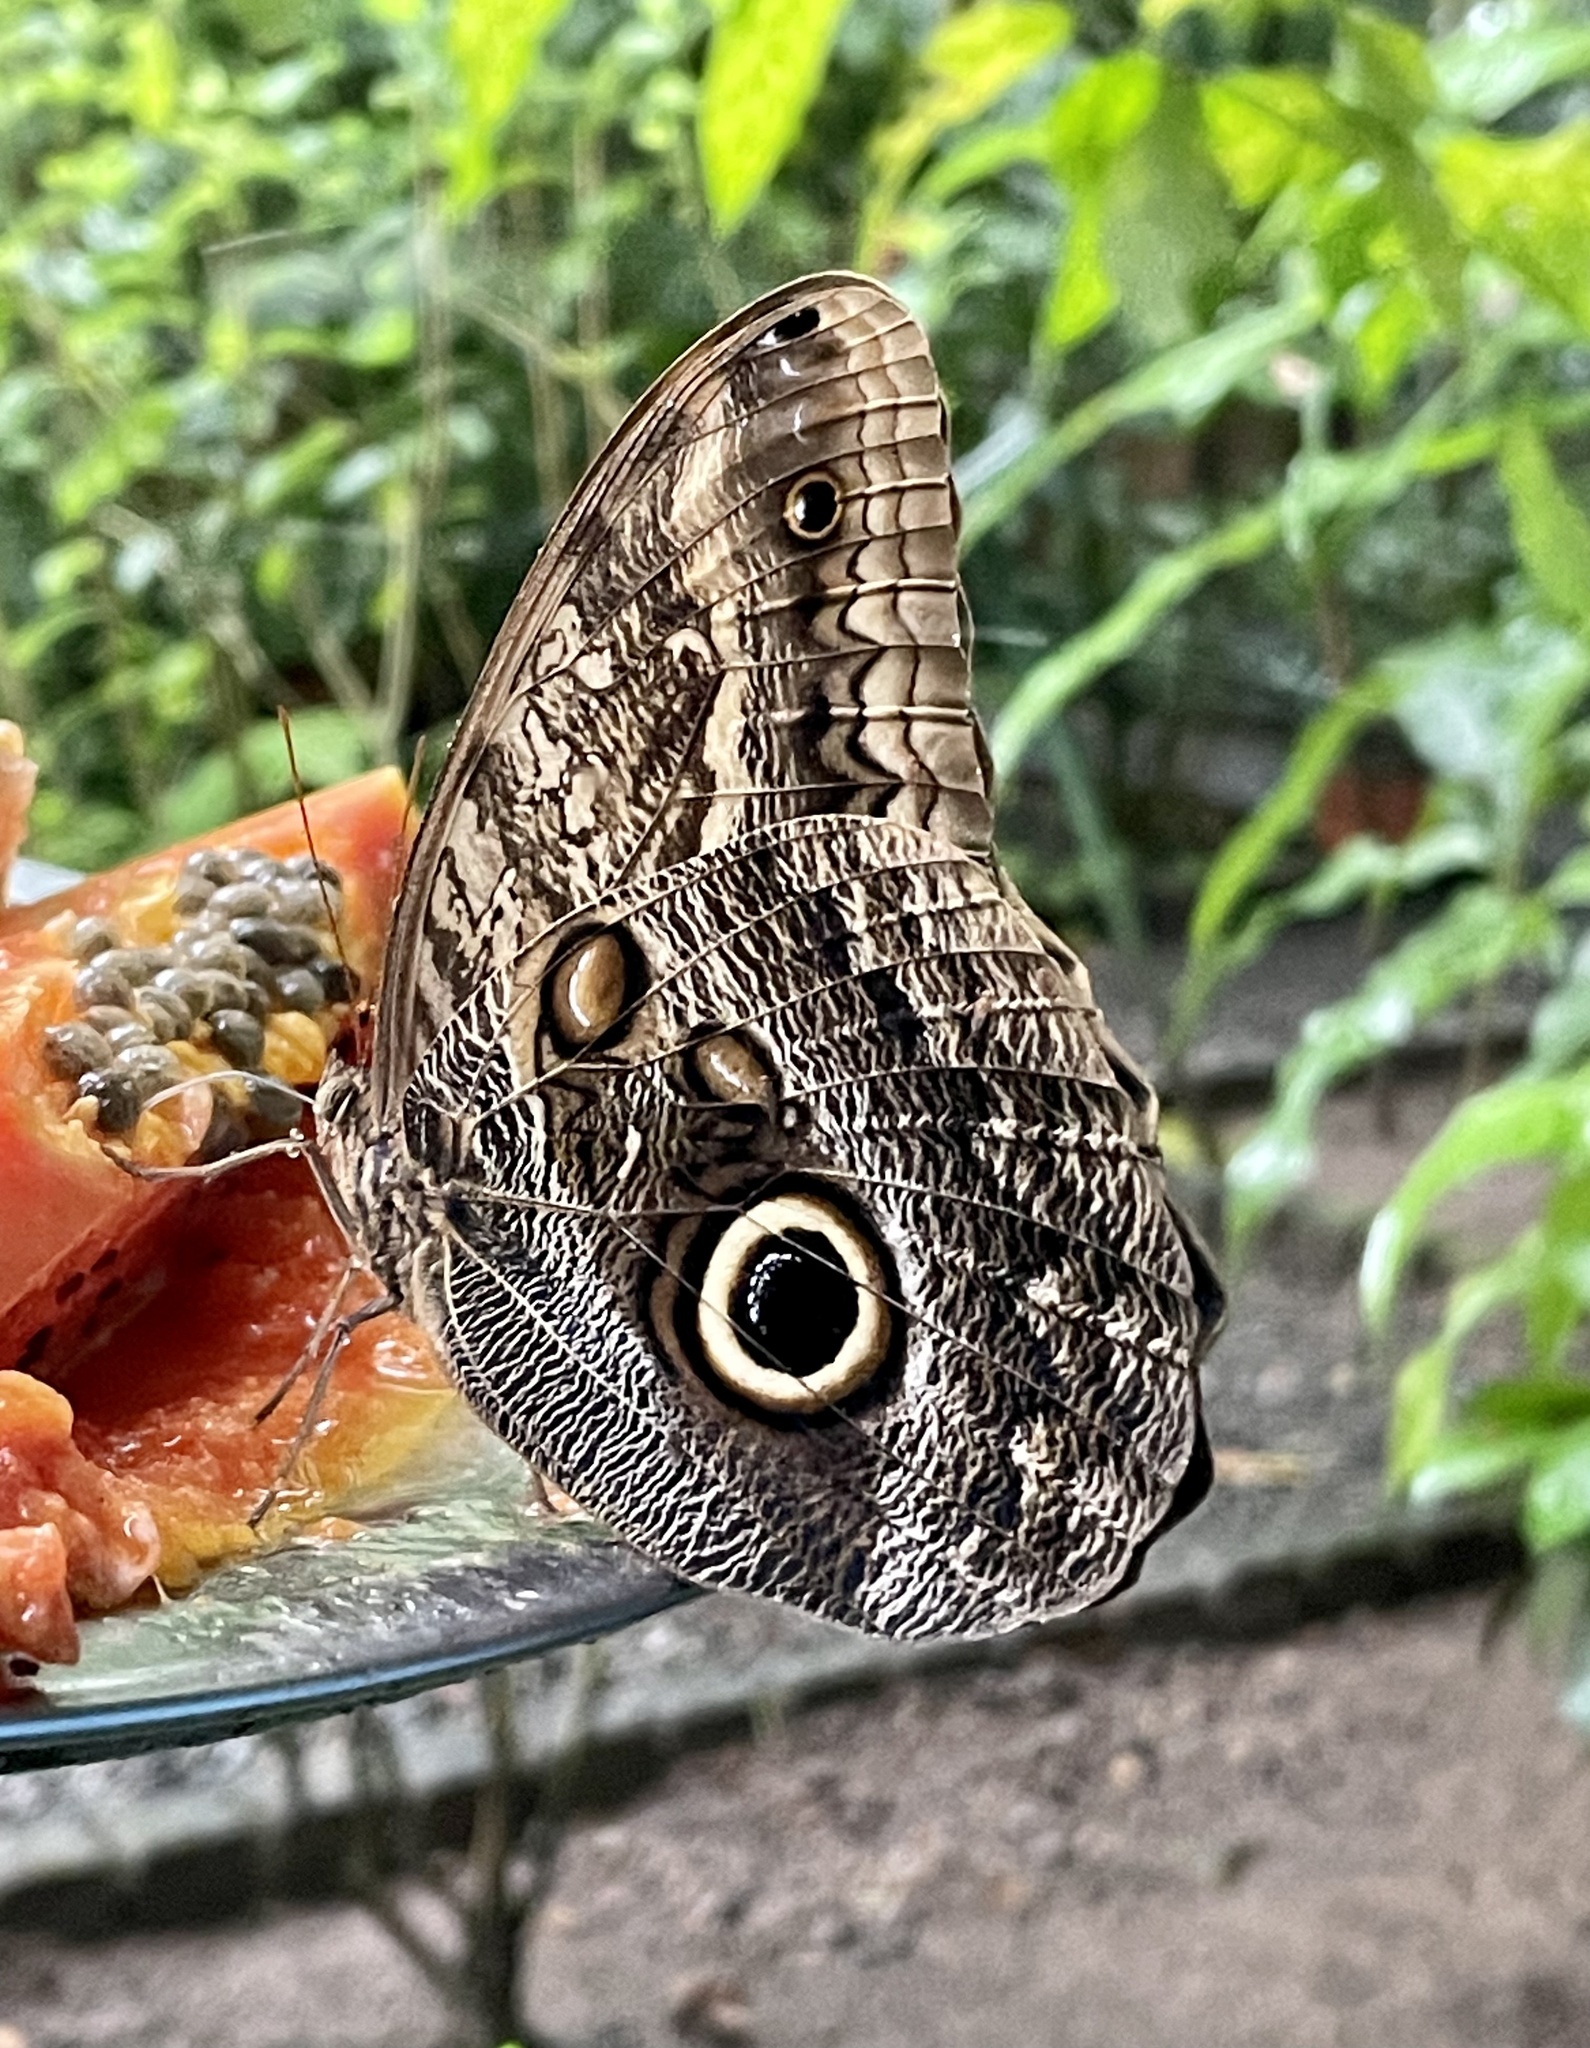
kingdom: Animalia
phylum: Arthropoda
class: Insecta
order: Lepidoptera
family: Nymphalidae
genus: Caligo
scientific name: Caligo telamonius
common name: Pale owl-butterfly
